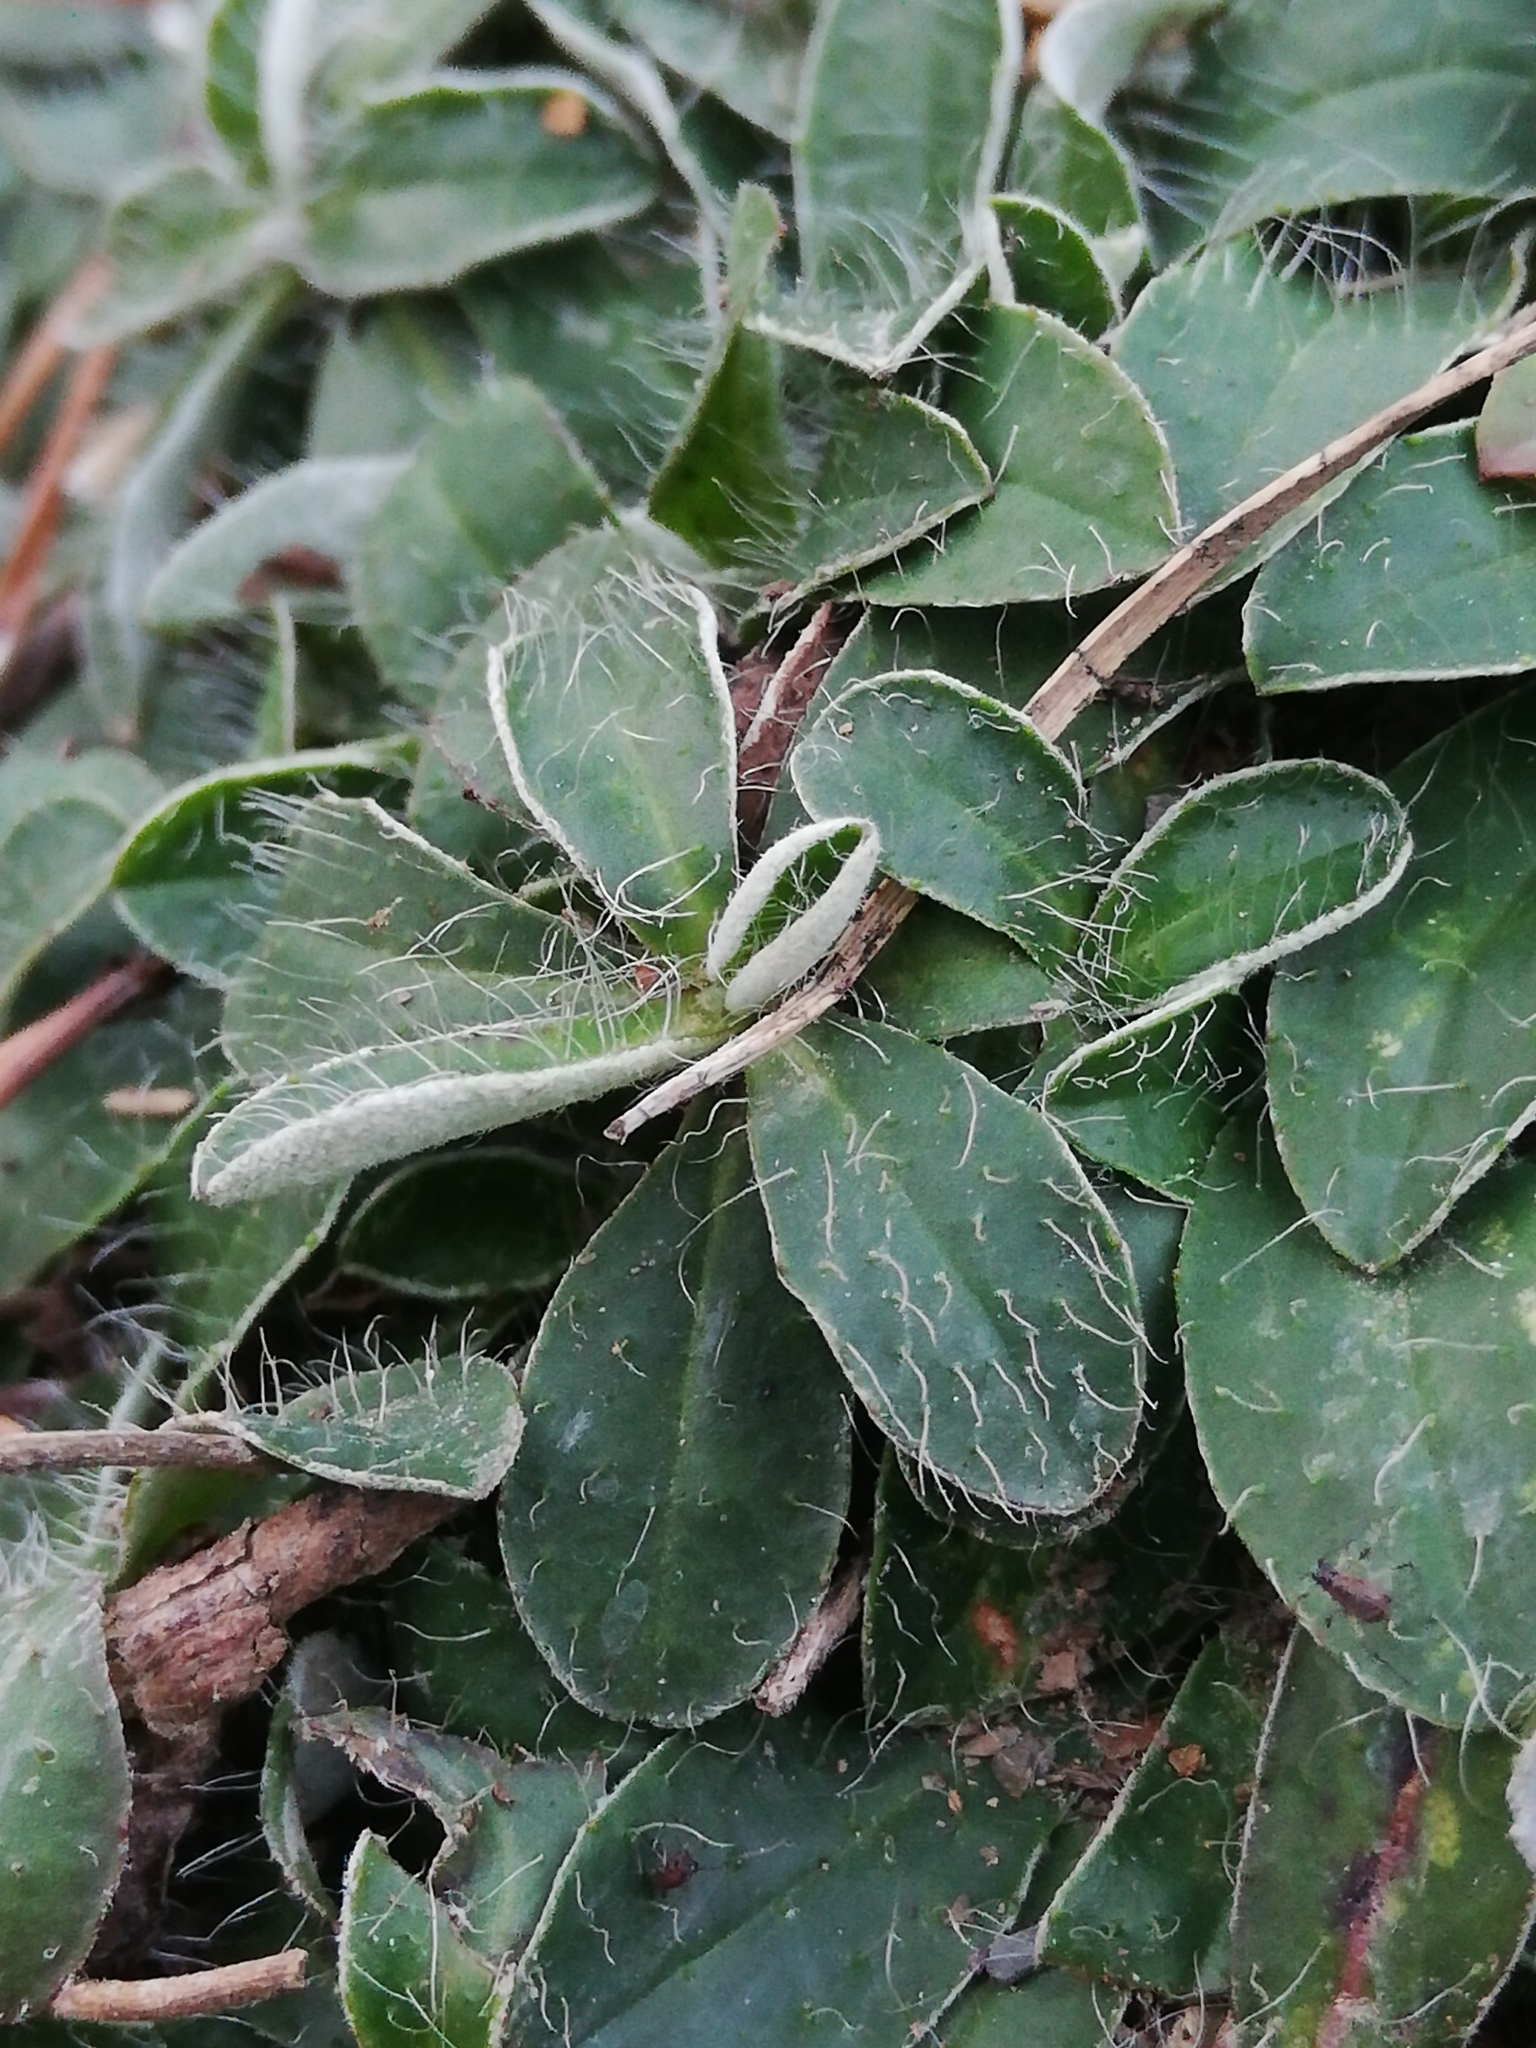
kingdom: Plantae
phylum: Tracheophyta
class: Magnoliopsida
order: Asterales
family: Asteraceae
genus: Pilosella
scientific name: Pilosella officinarum
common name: Mouse-ear hawkweed
